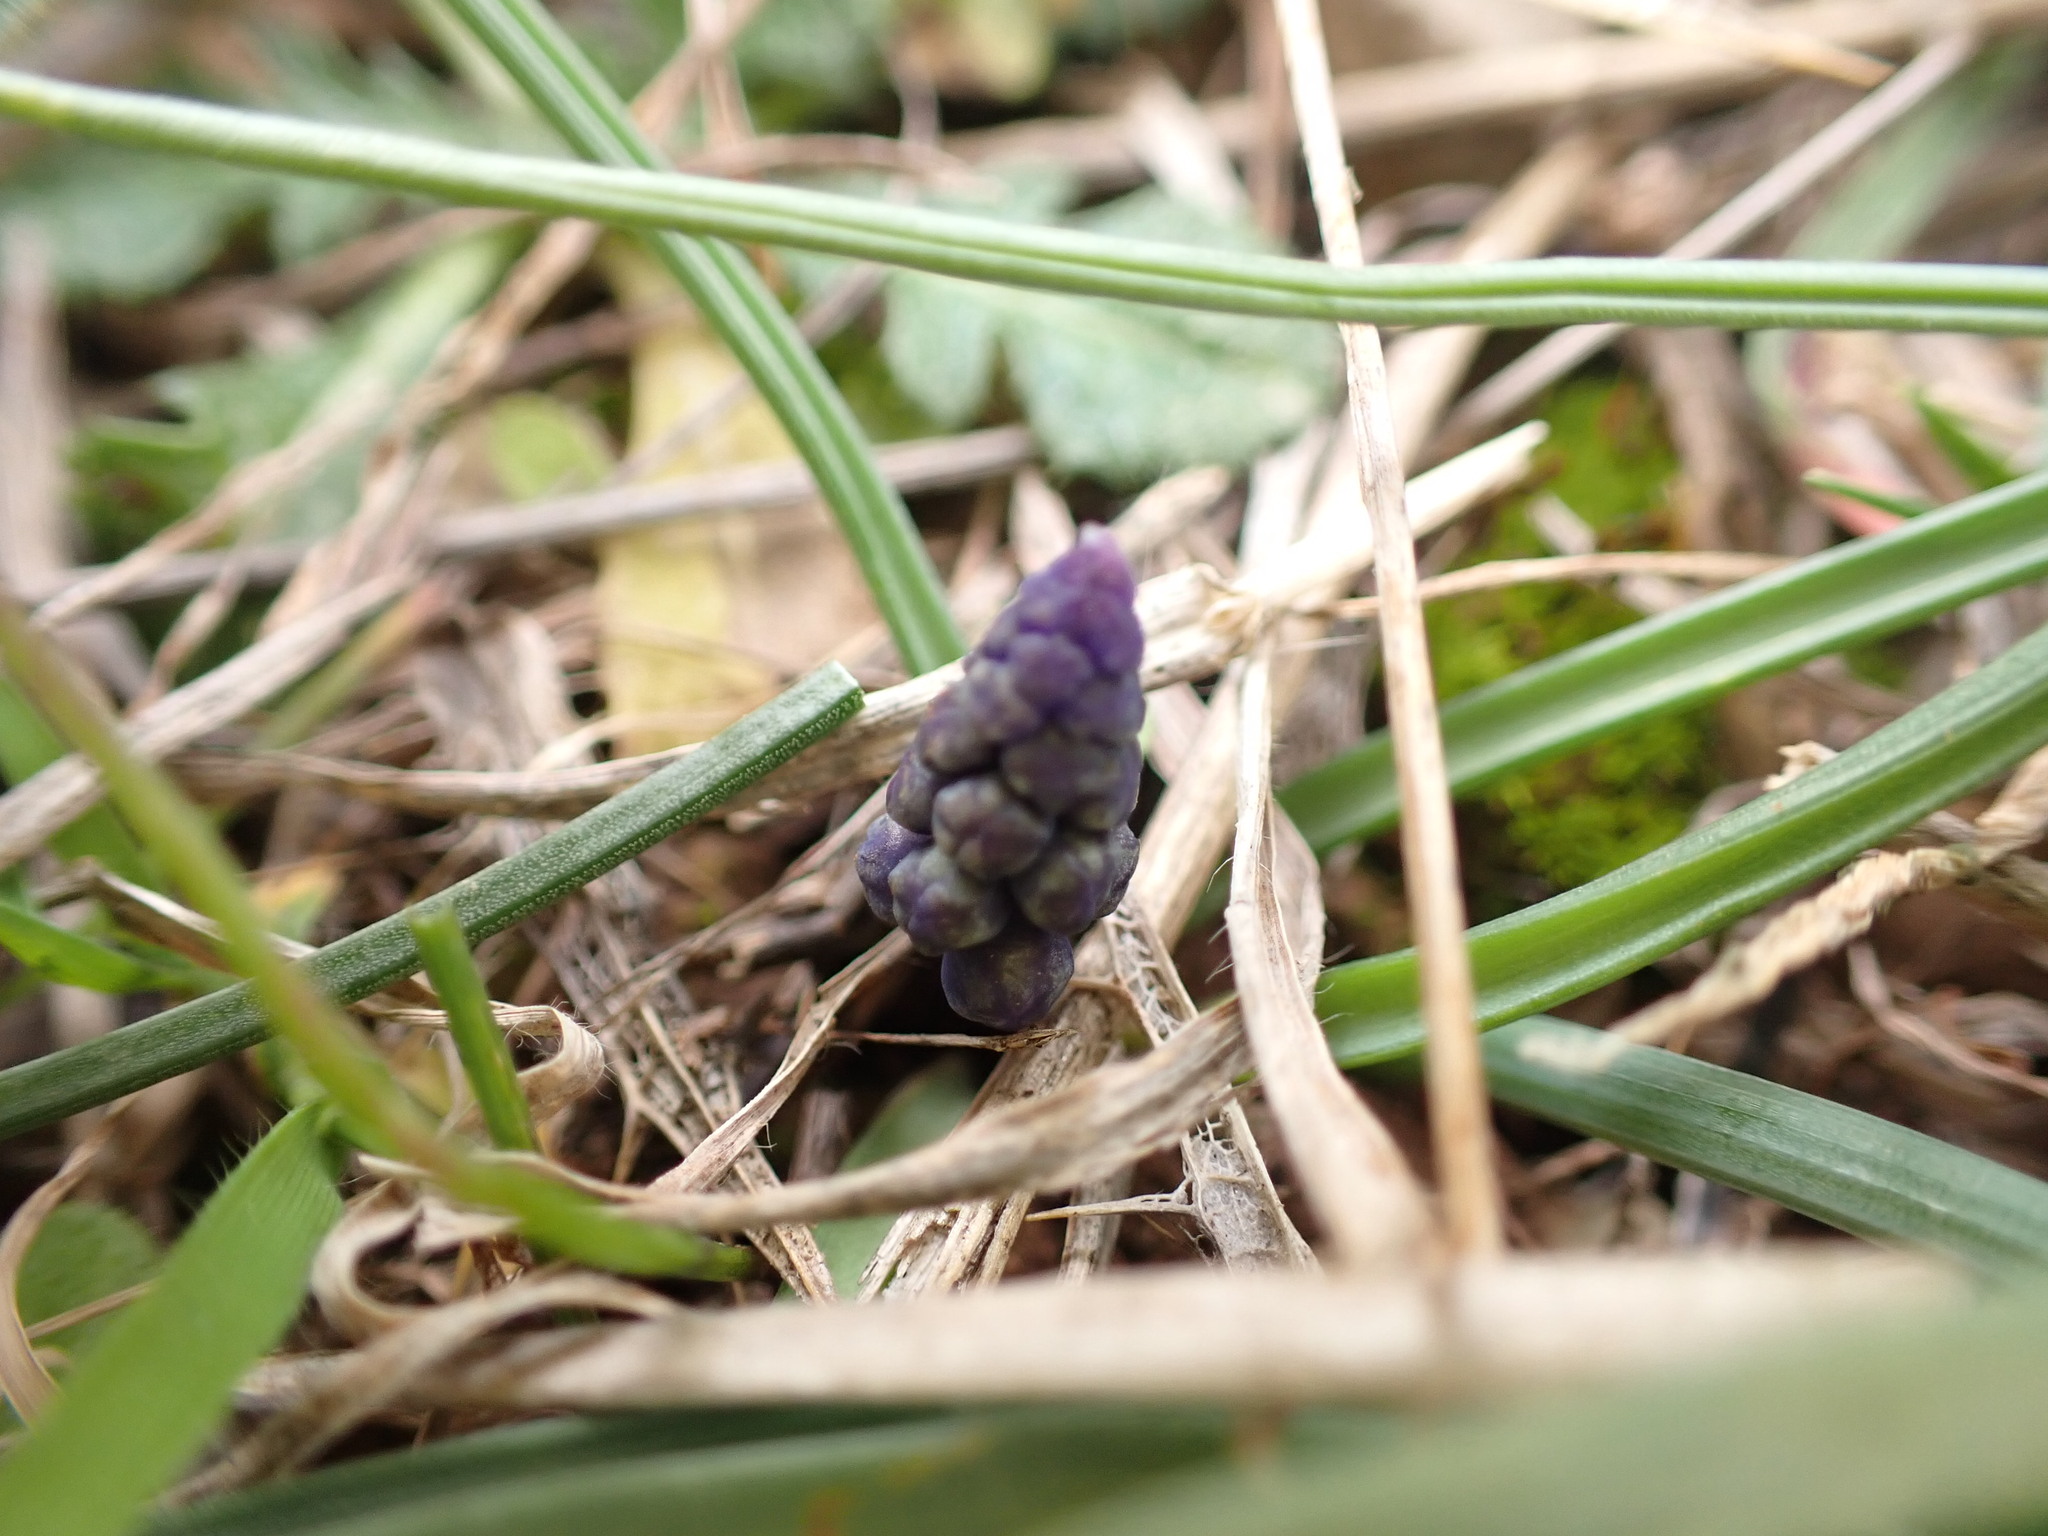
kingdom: Plantae
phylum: Tracheophyta
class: Liliopsida
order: Asparagales
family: Asparagaceae
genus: Muscari
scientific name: Muscari neglectum
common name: Grape-hyacinth
